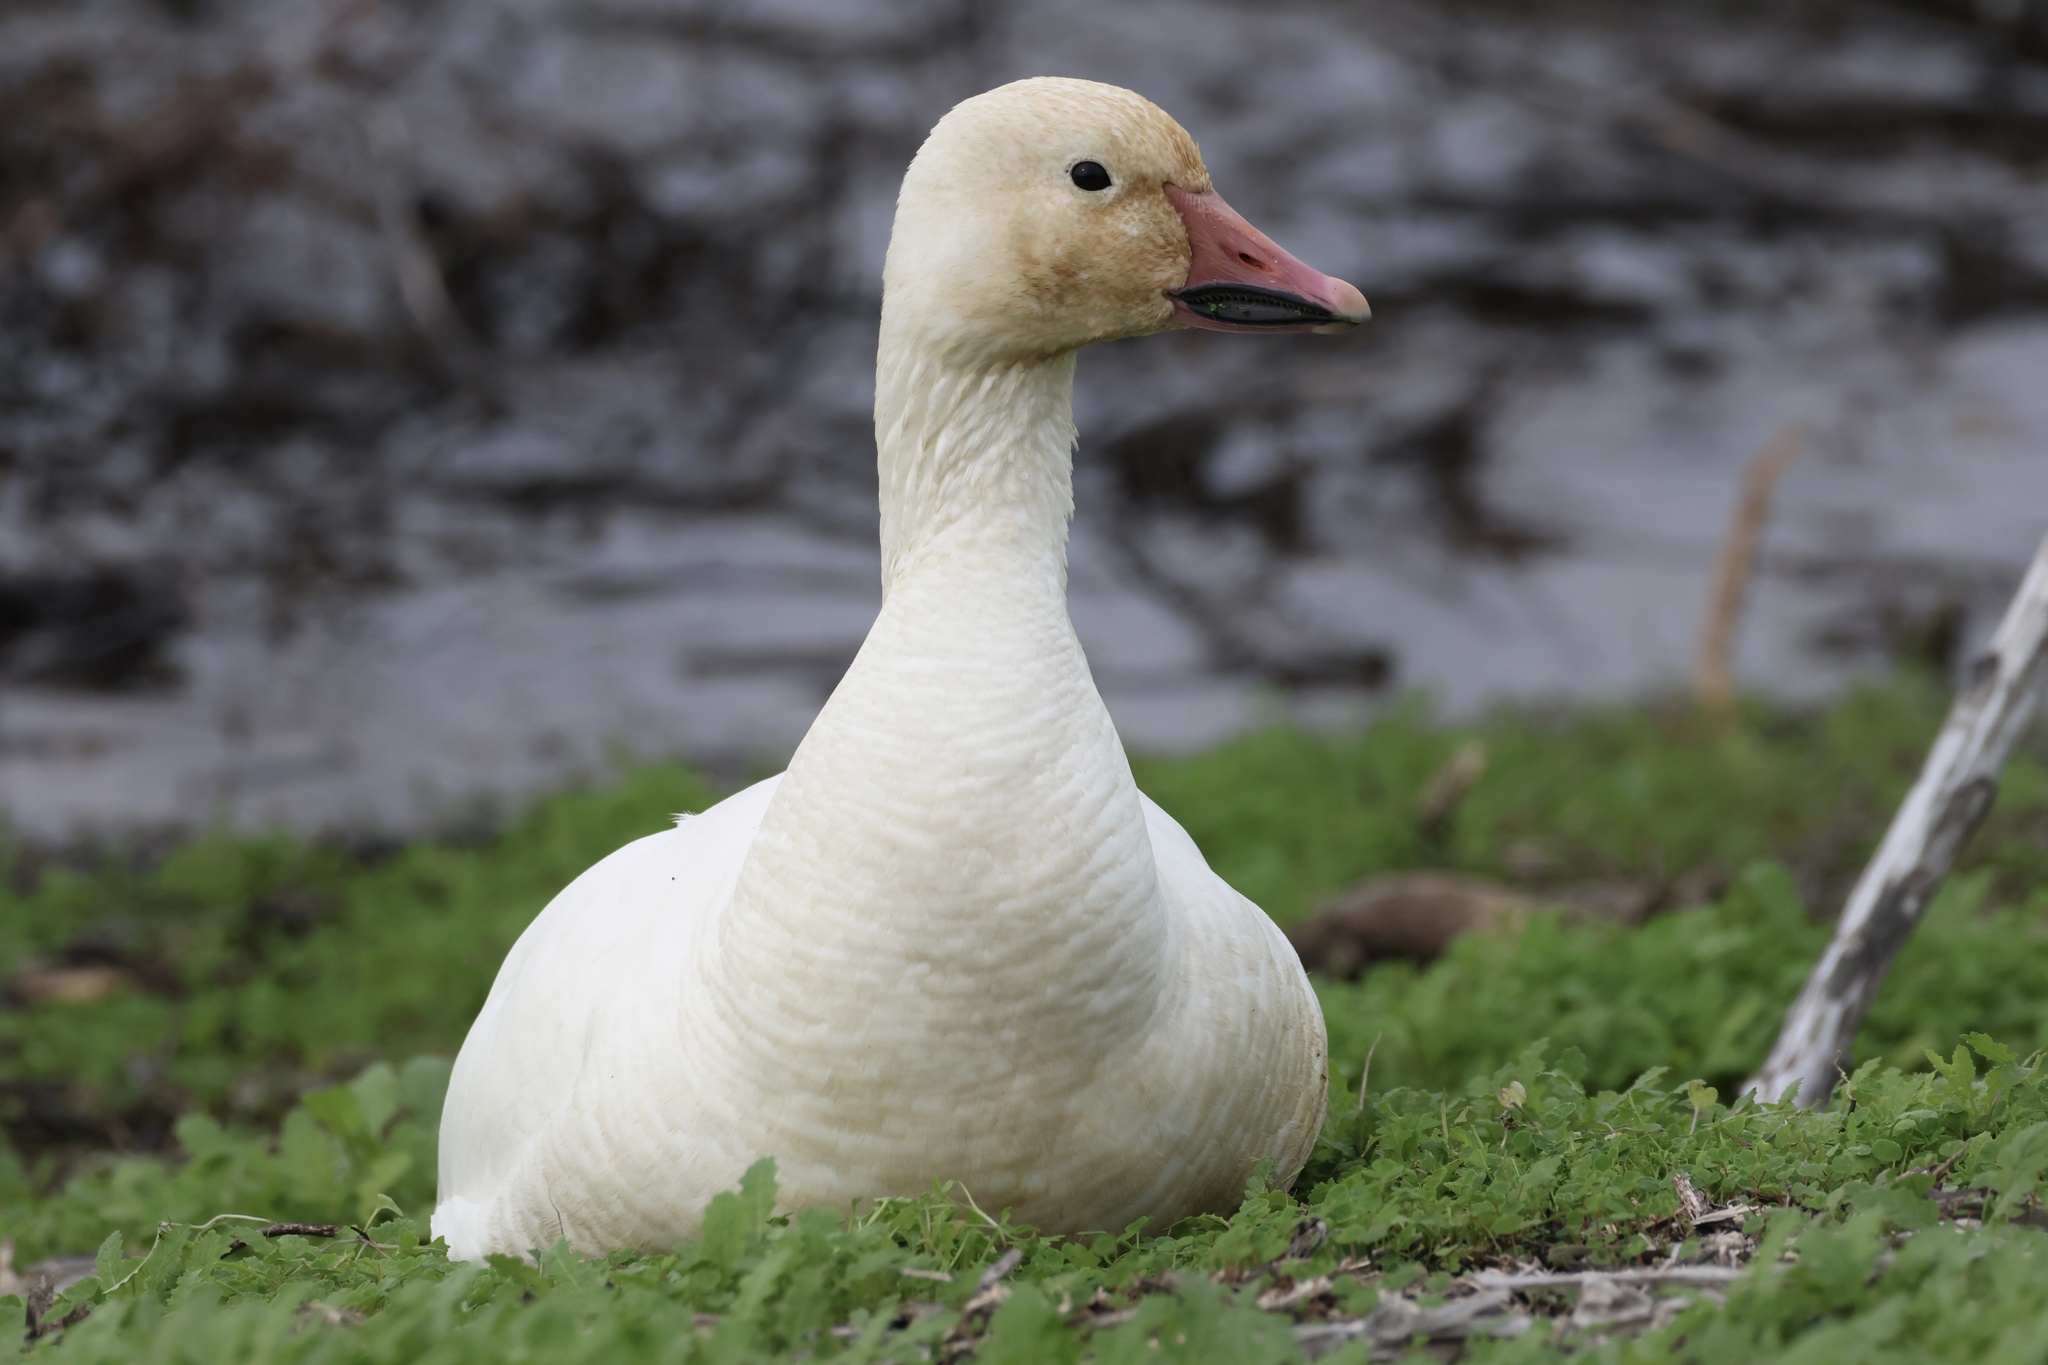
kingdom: Animalia
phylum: Chordata
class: Aves
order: Anseriformes
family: Anatidae
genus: Anser
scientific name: Anser caerulescens
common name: Snow goose
